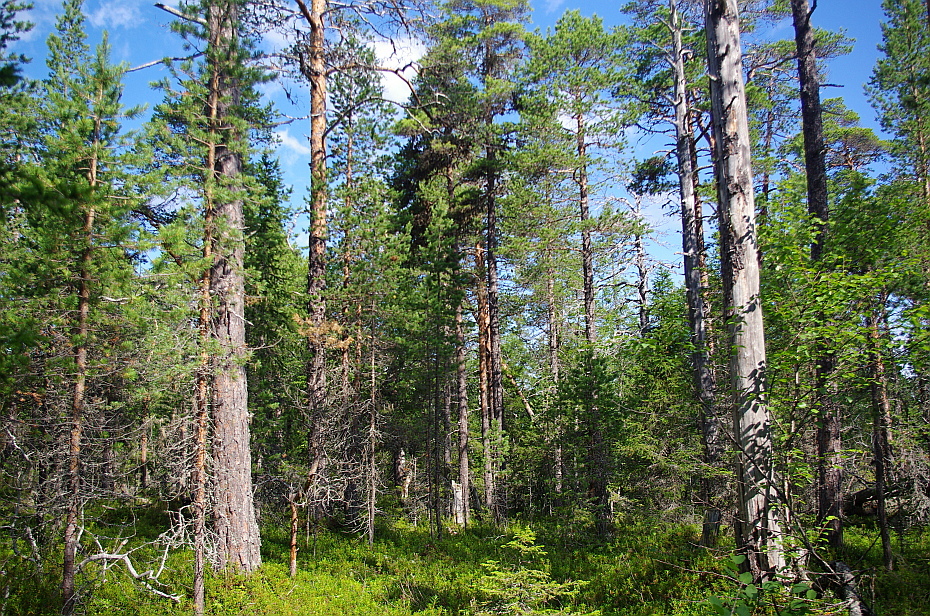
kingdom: Plantae
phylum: Tracheophyta
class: Pinopsida
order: Pinales
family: Pinaceae
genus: Pinus
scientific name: Pinus sylvestris
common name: Scots pine
